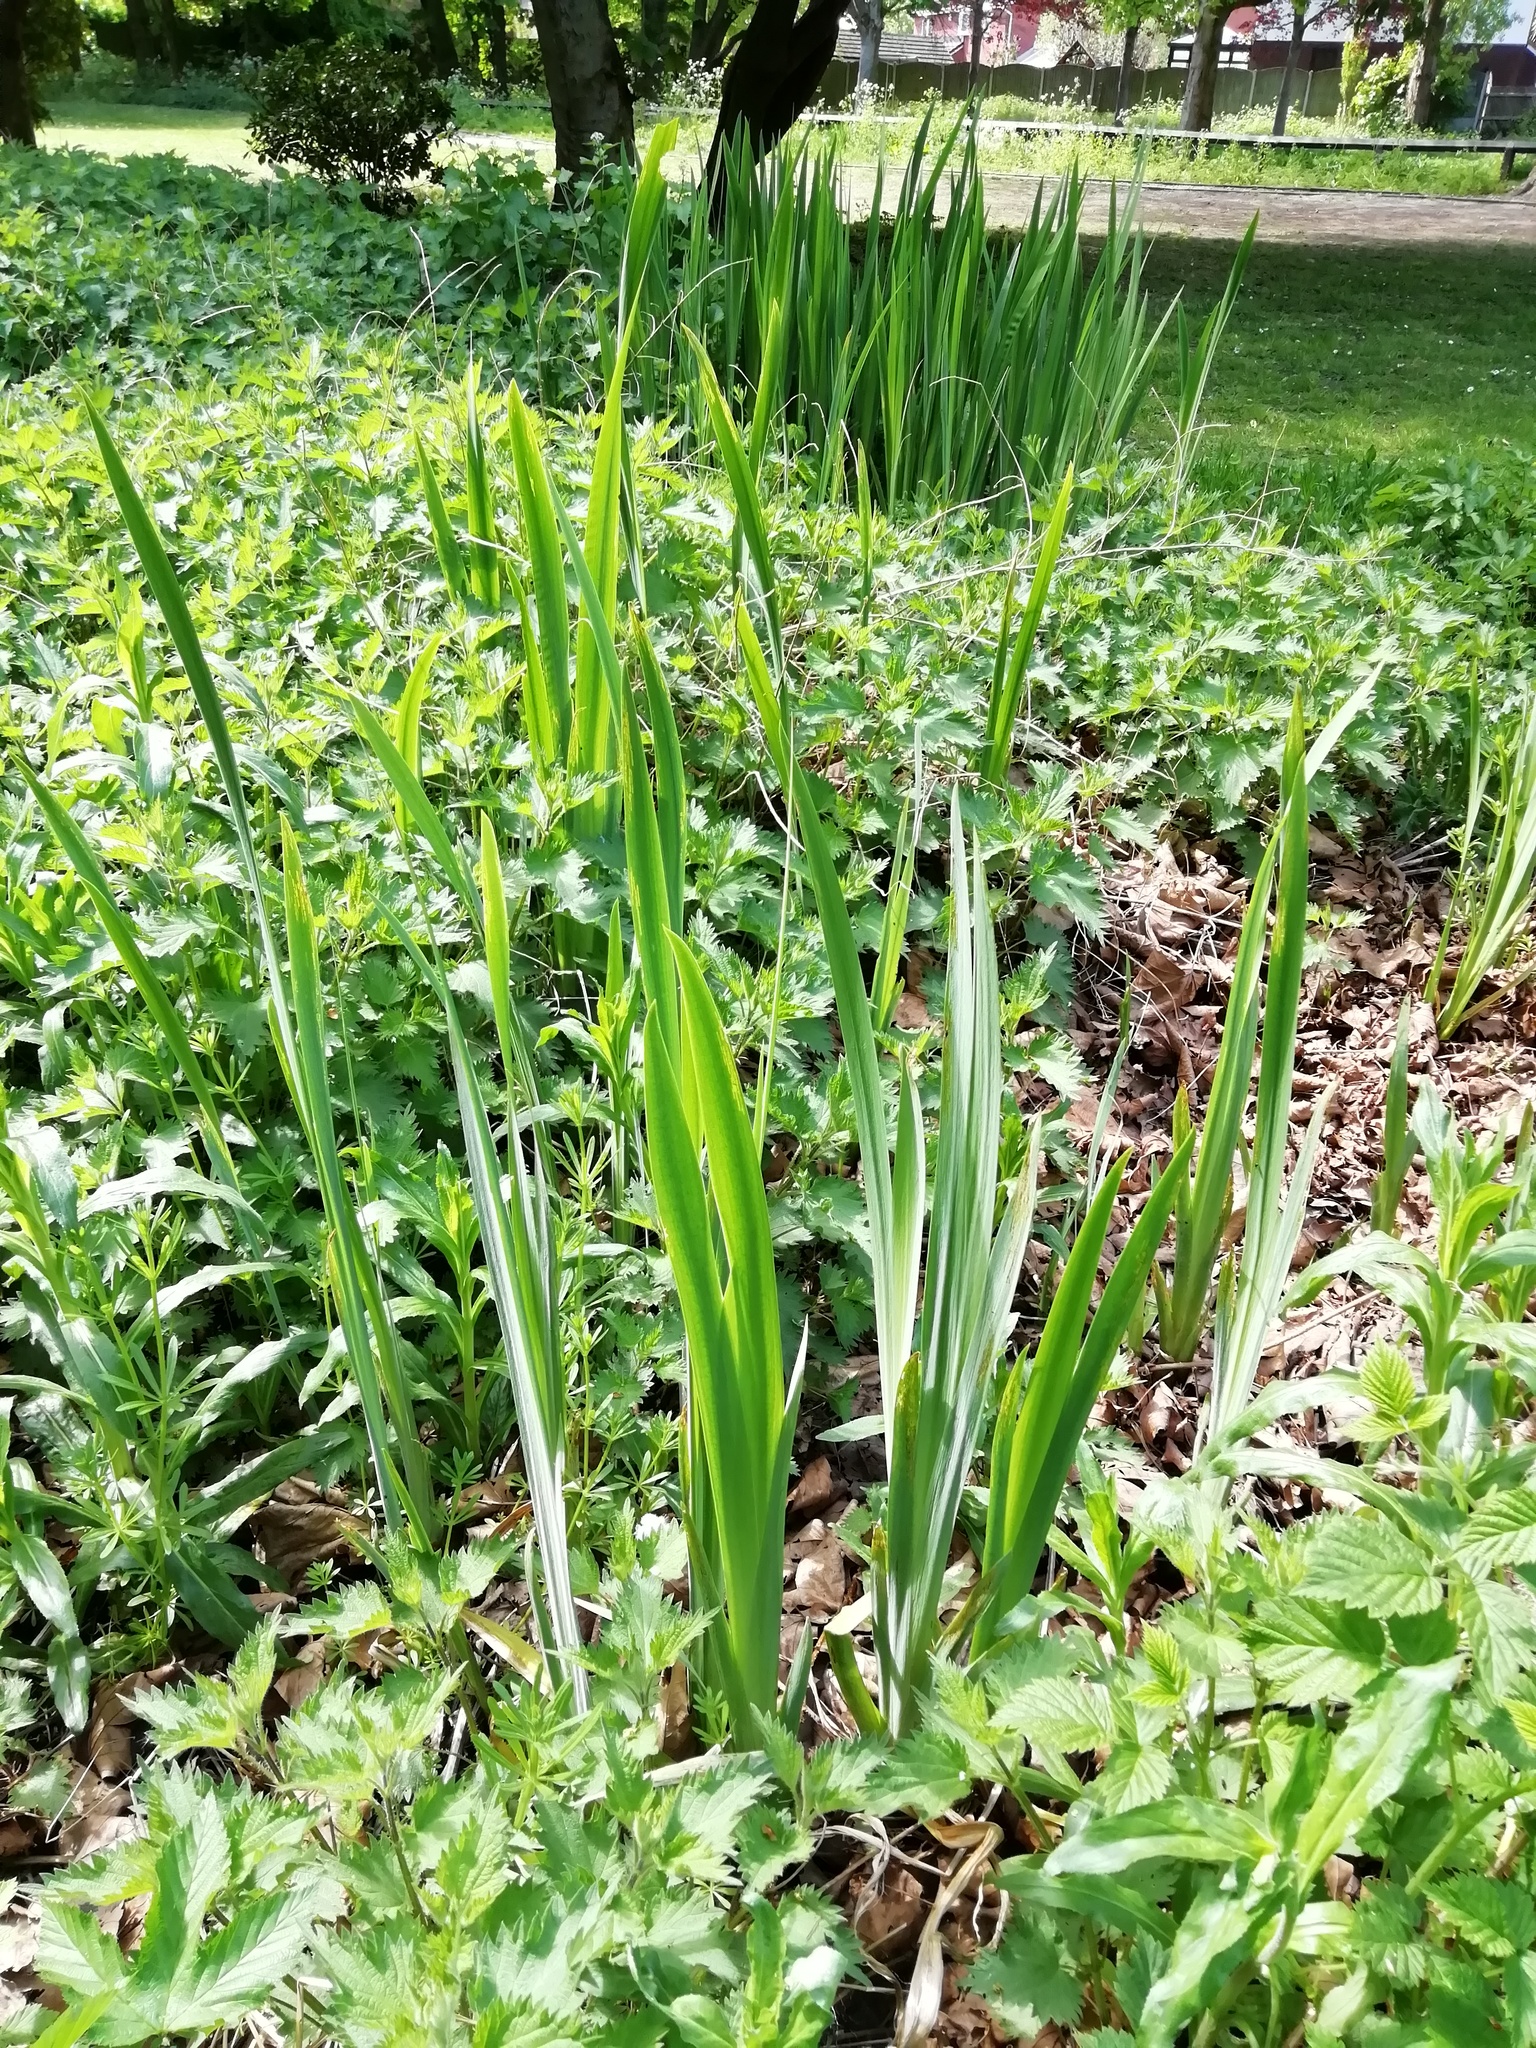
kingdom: Plantae
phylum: Tracheophyta
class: Liliopsida
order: Asparagales
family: Iridaceae
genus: Iris
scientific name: Iris pseudacorus
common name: Yellow flag
